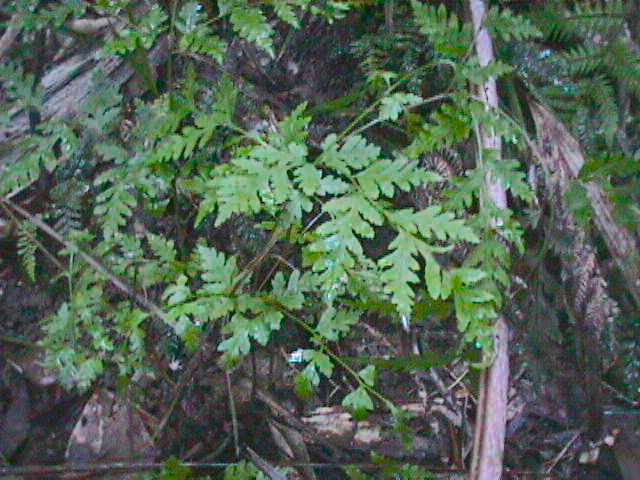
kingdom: Plantae
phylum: Tracheophyta
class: Polypodiopsida
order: Polypodiales
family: Pteridaceae
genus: Pteris
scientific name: Pteris macilenta
